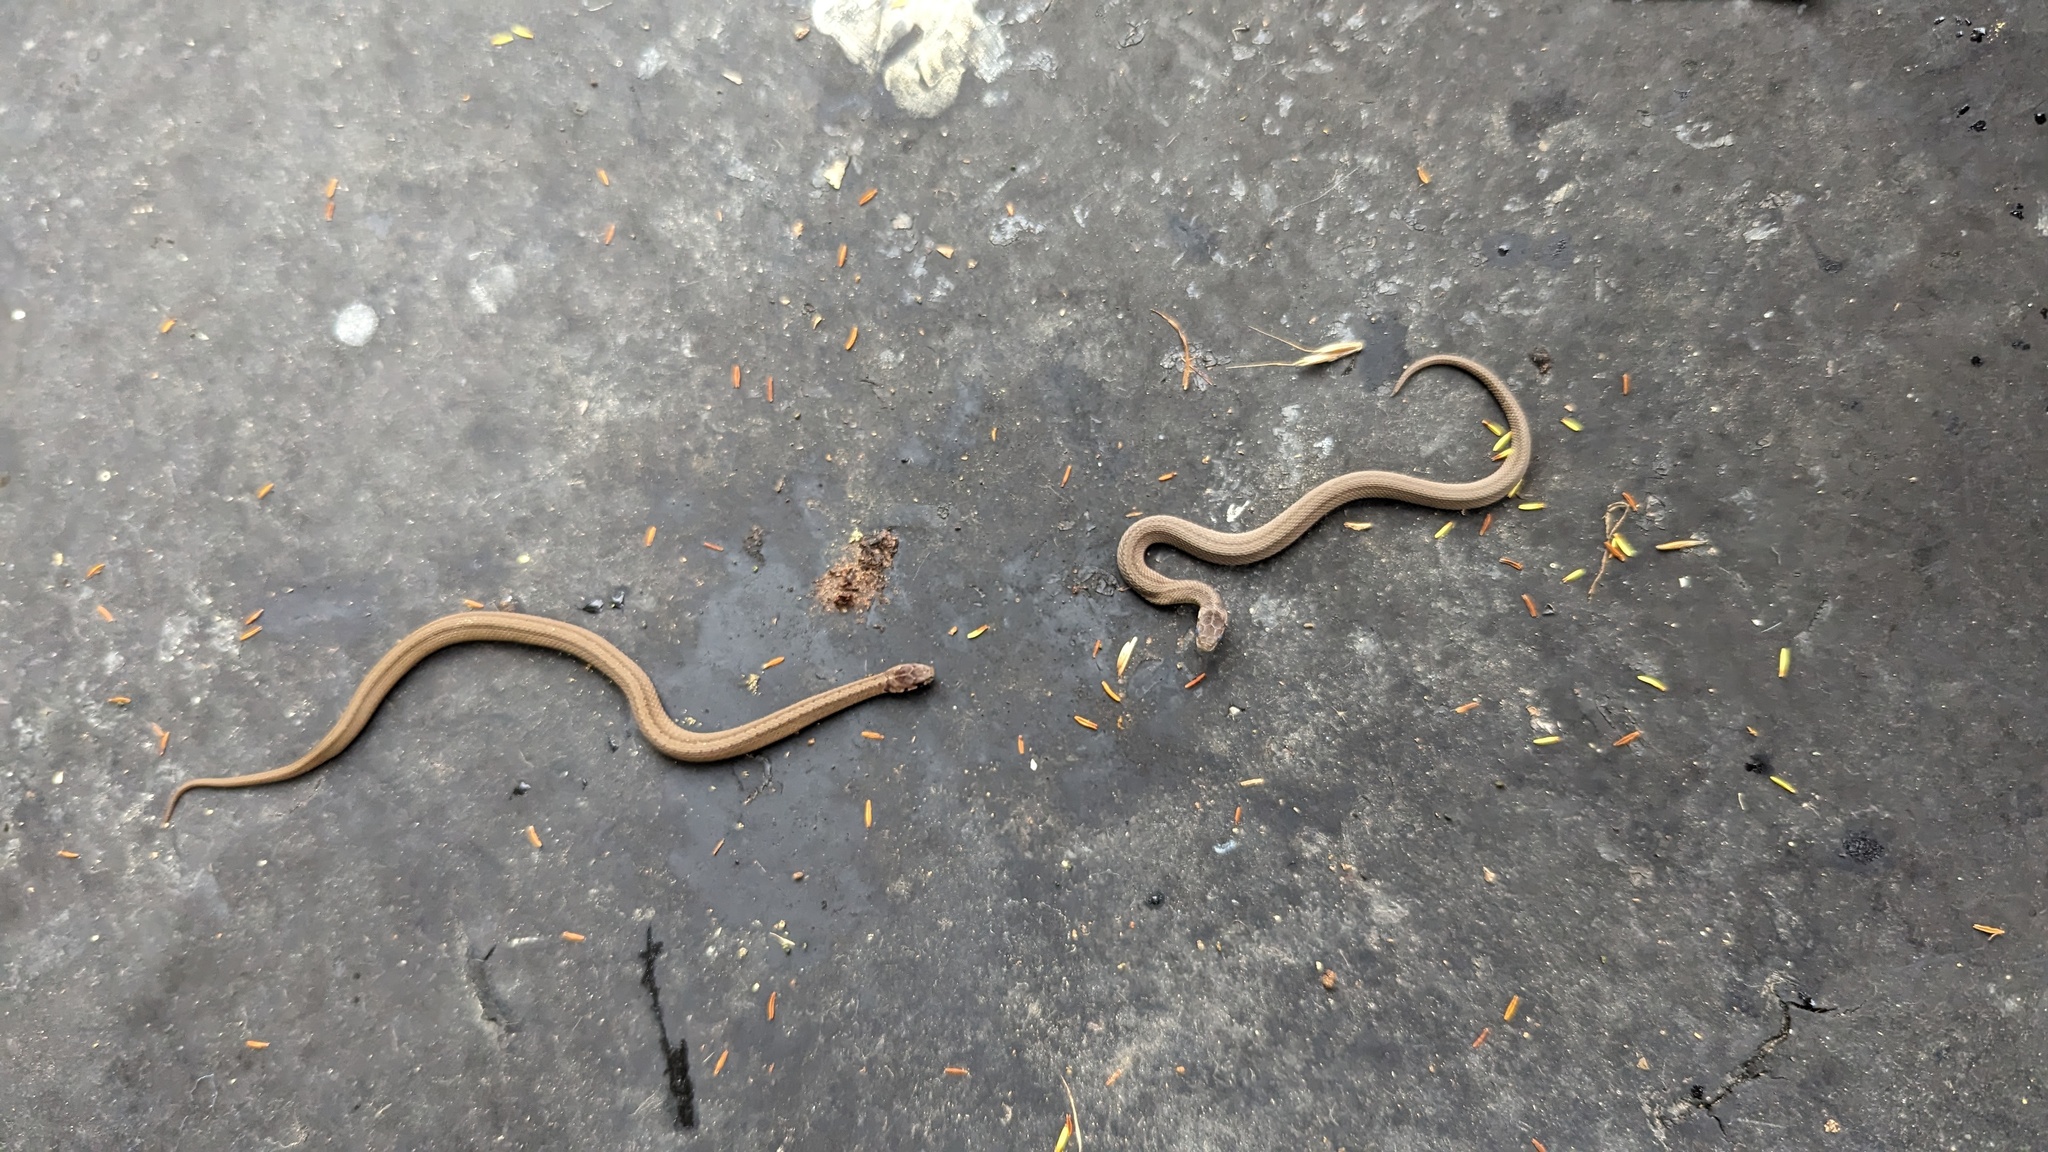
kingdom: Animalia
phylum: Chordata
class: Squamata
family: Colubridae
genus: Storeria
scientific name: Storeria dekayi
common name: (dekay’s) brown snake
